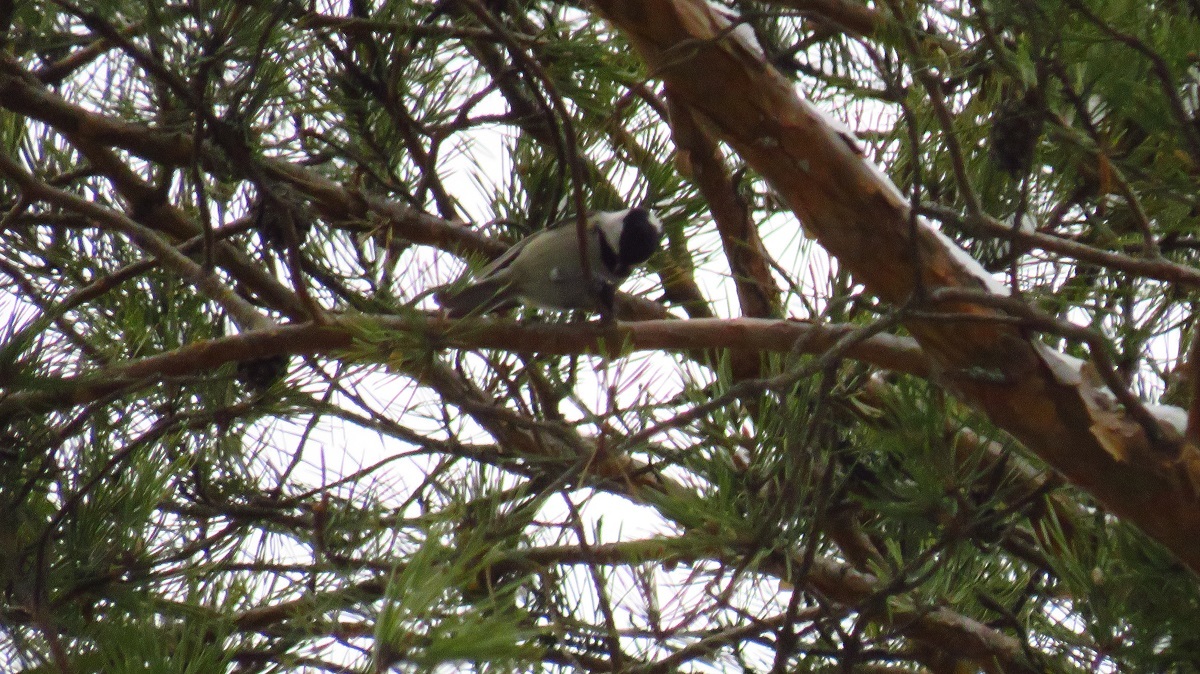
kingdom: Animalia
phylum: Chordata
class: Aves
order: Passeriformes
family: Paridae
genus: Periparus
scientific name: Periparus ater
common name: Coal tit
